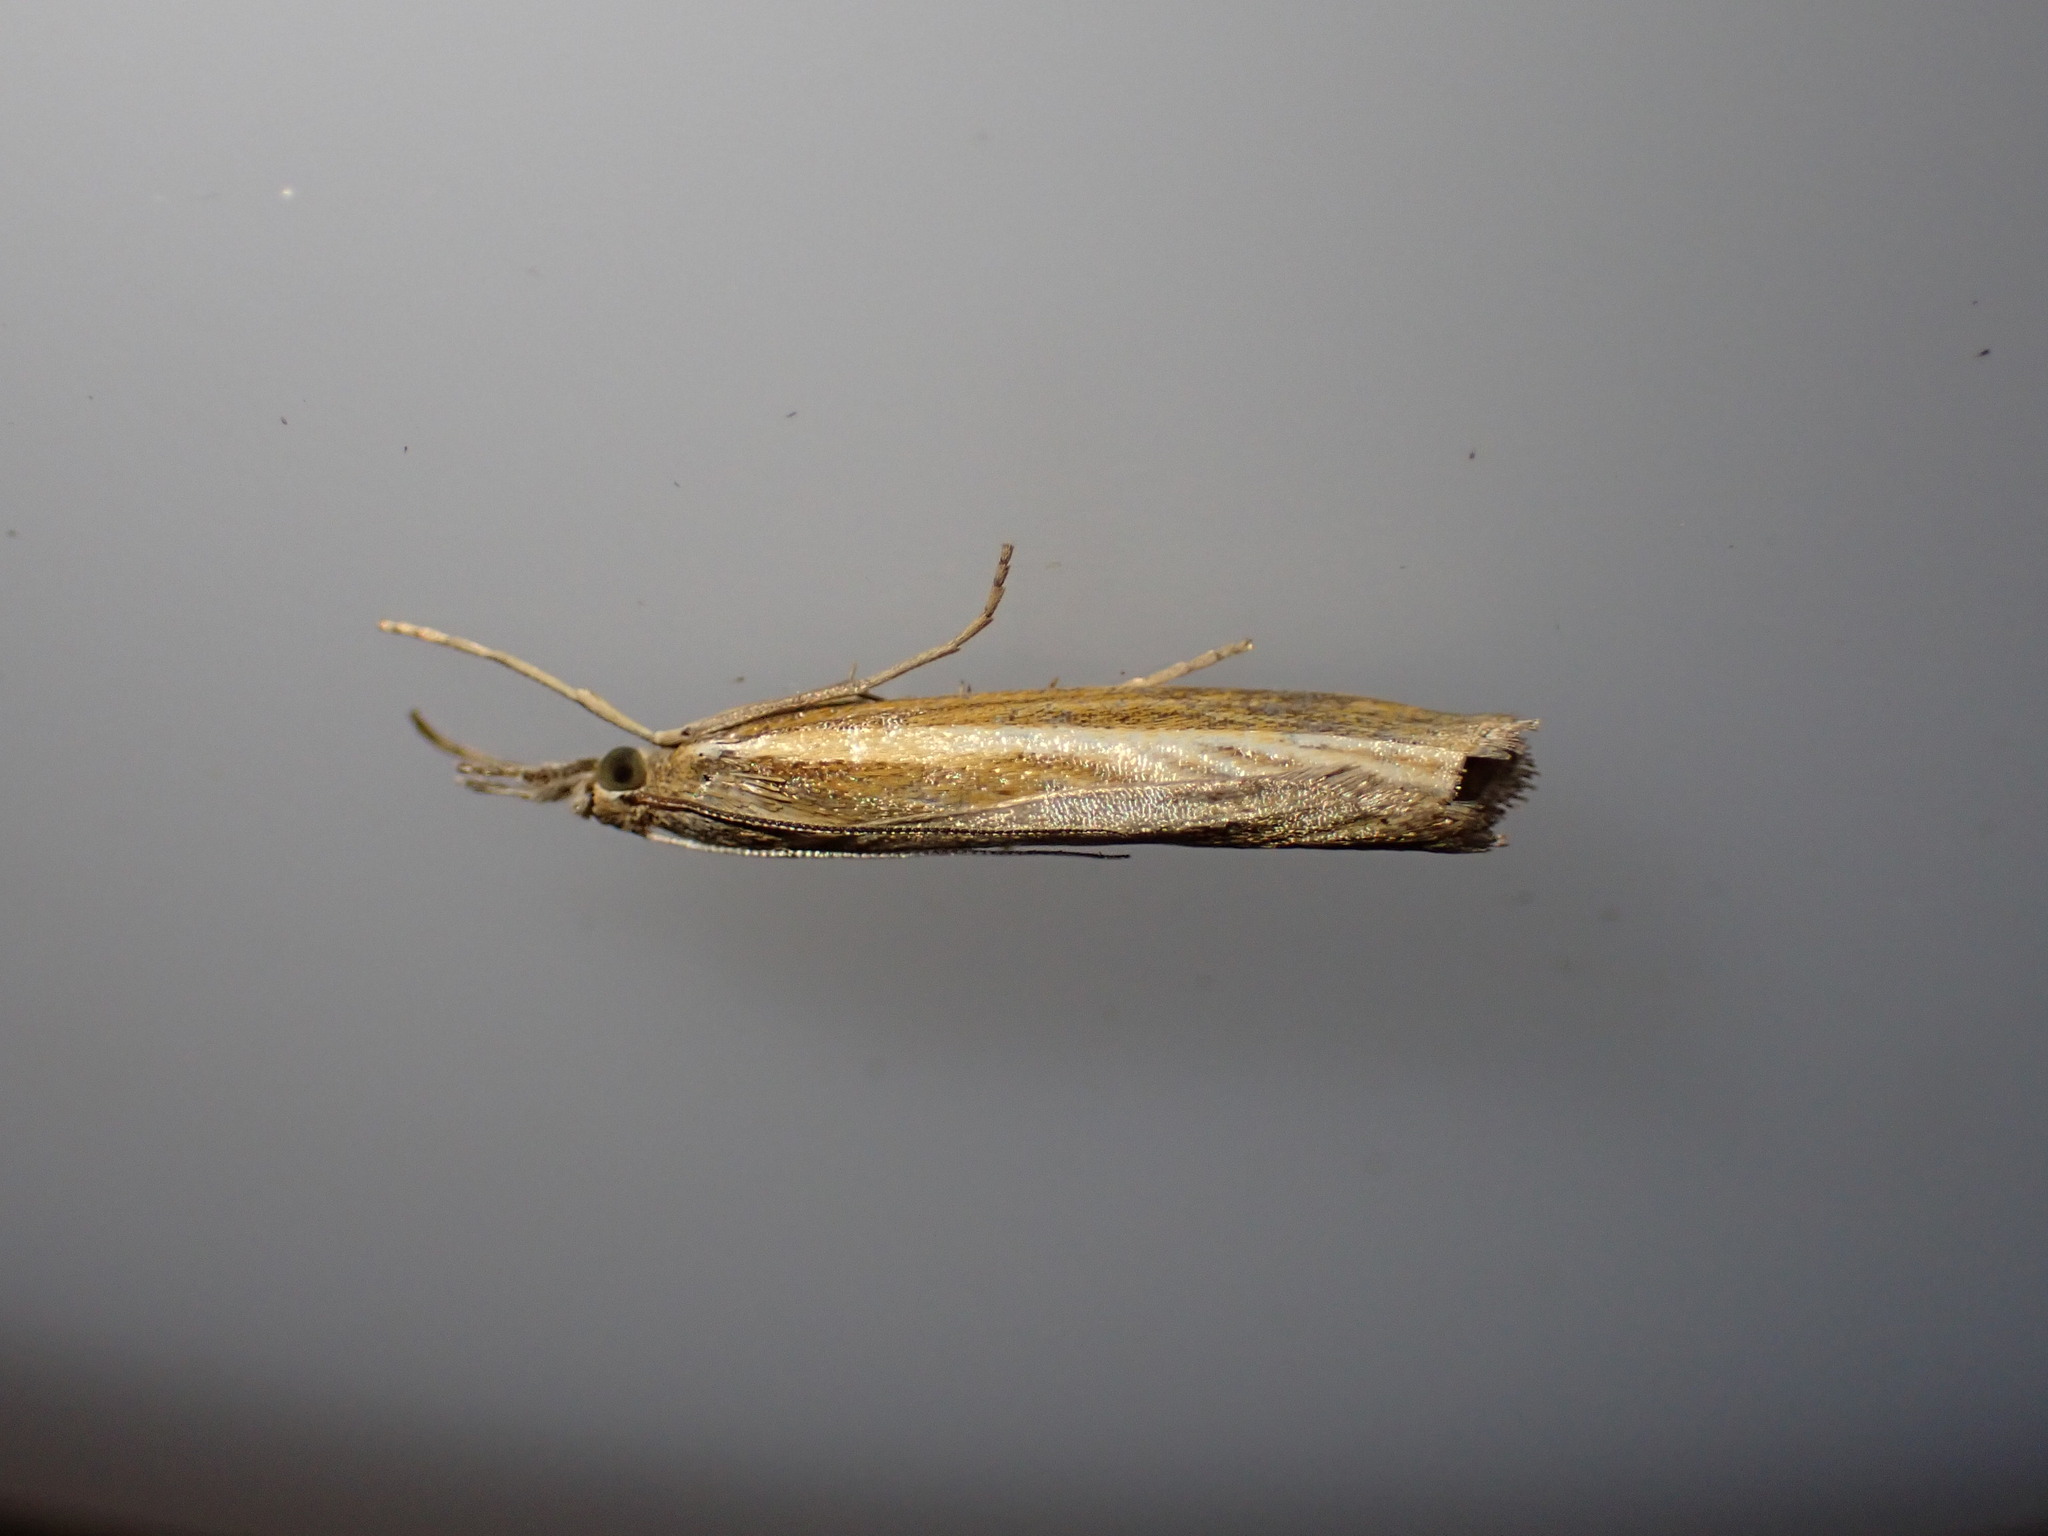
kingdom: Animalia
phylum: Arthropoda
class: Insecta
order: Lepidoptera
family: Crambidae
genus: Agriphila
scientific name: Agriphila tristellus
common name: Common grass-veneer
